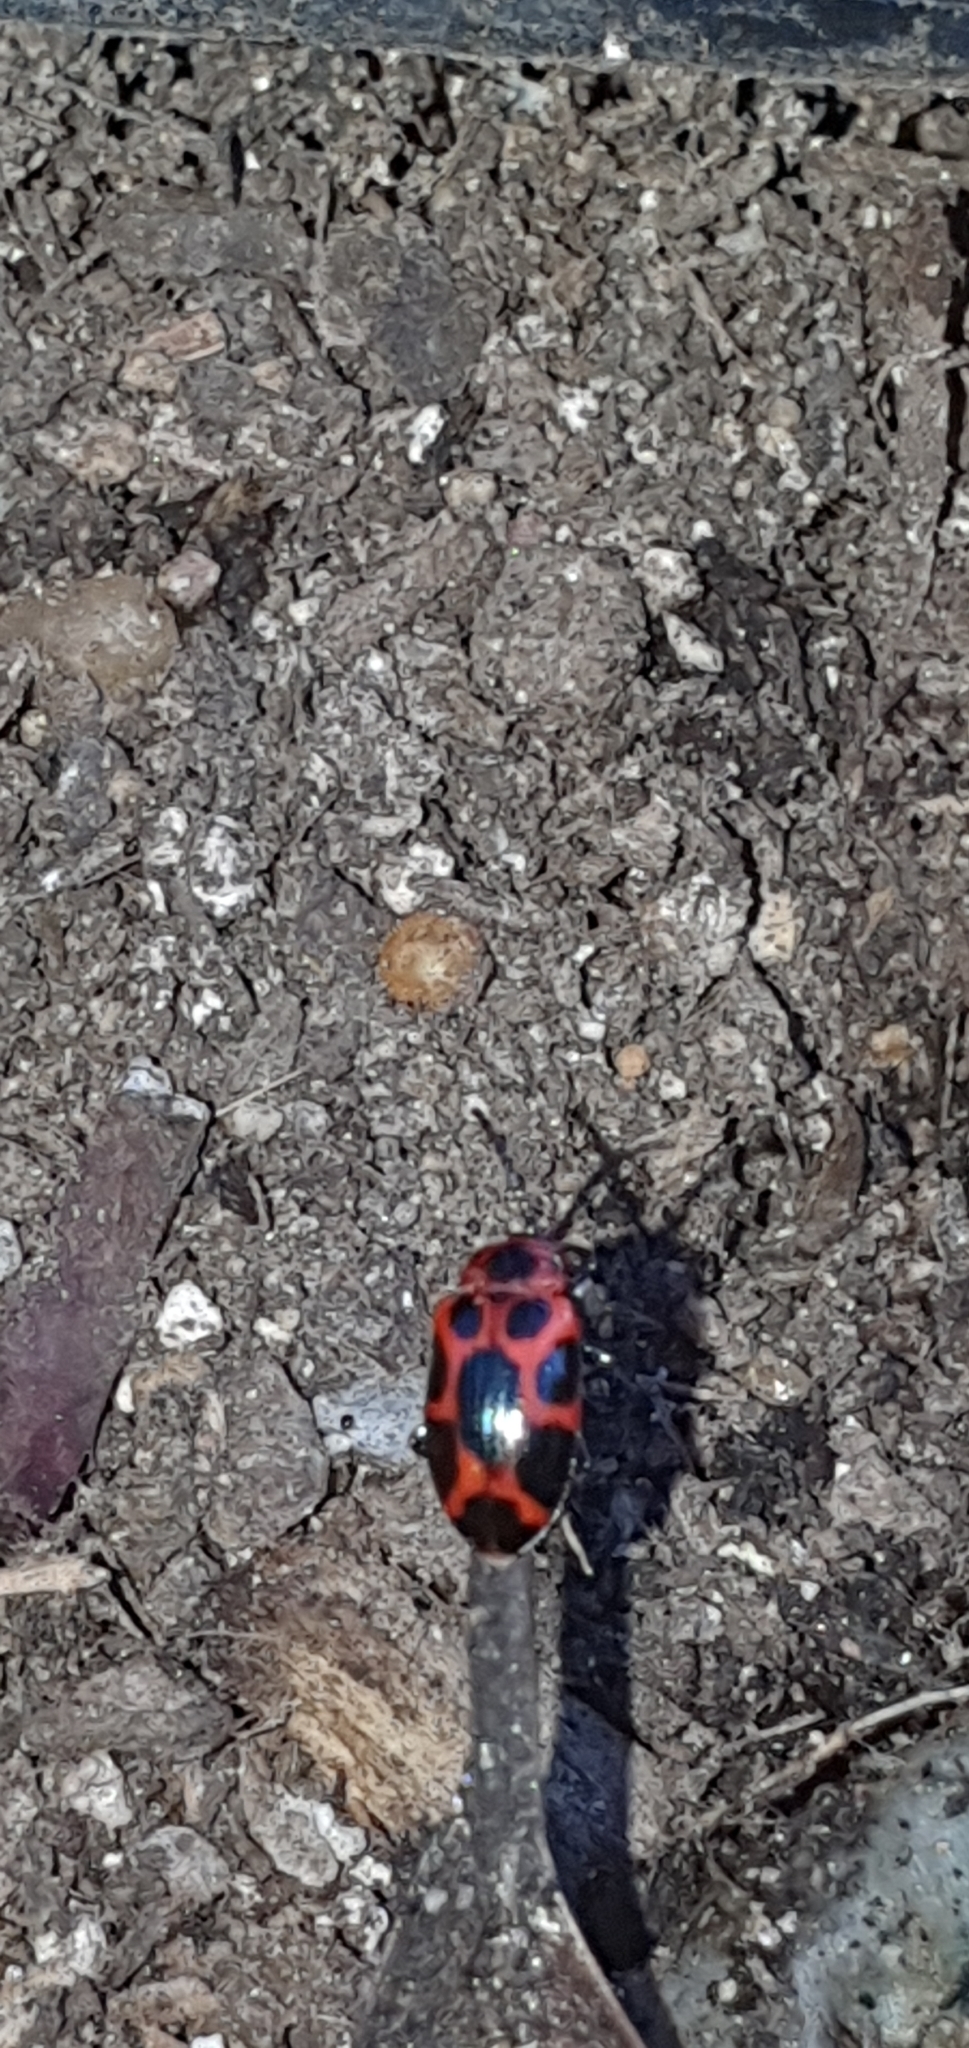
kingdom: Animalia
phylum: Arthropoda
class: Insecta
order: Coleoptera
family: Chrysomelidae
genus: Phyllocharis
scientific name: Phyllocharis
